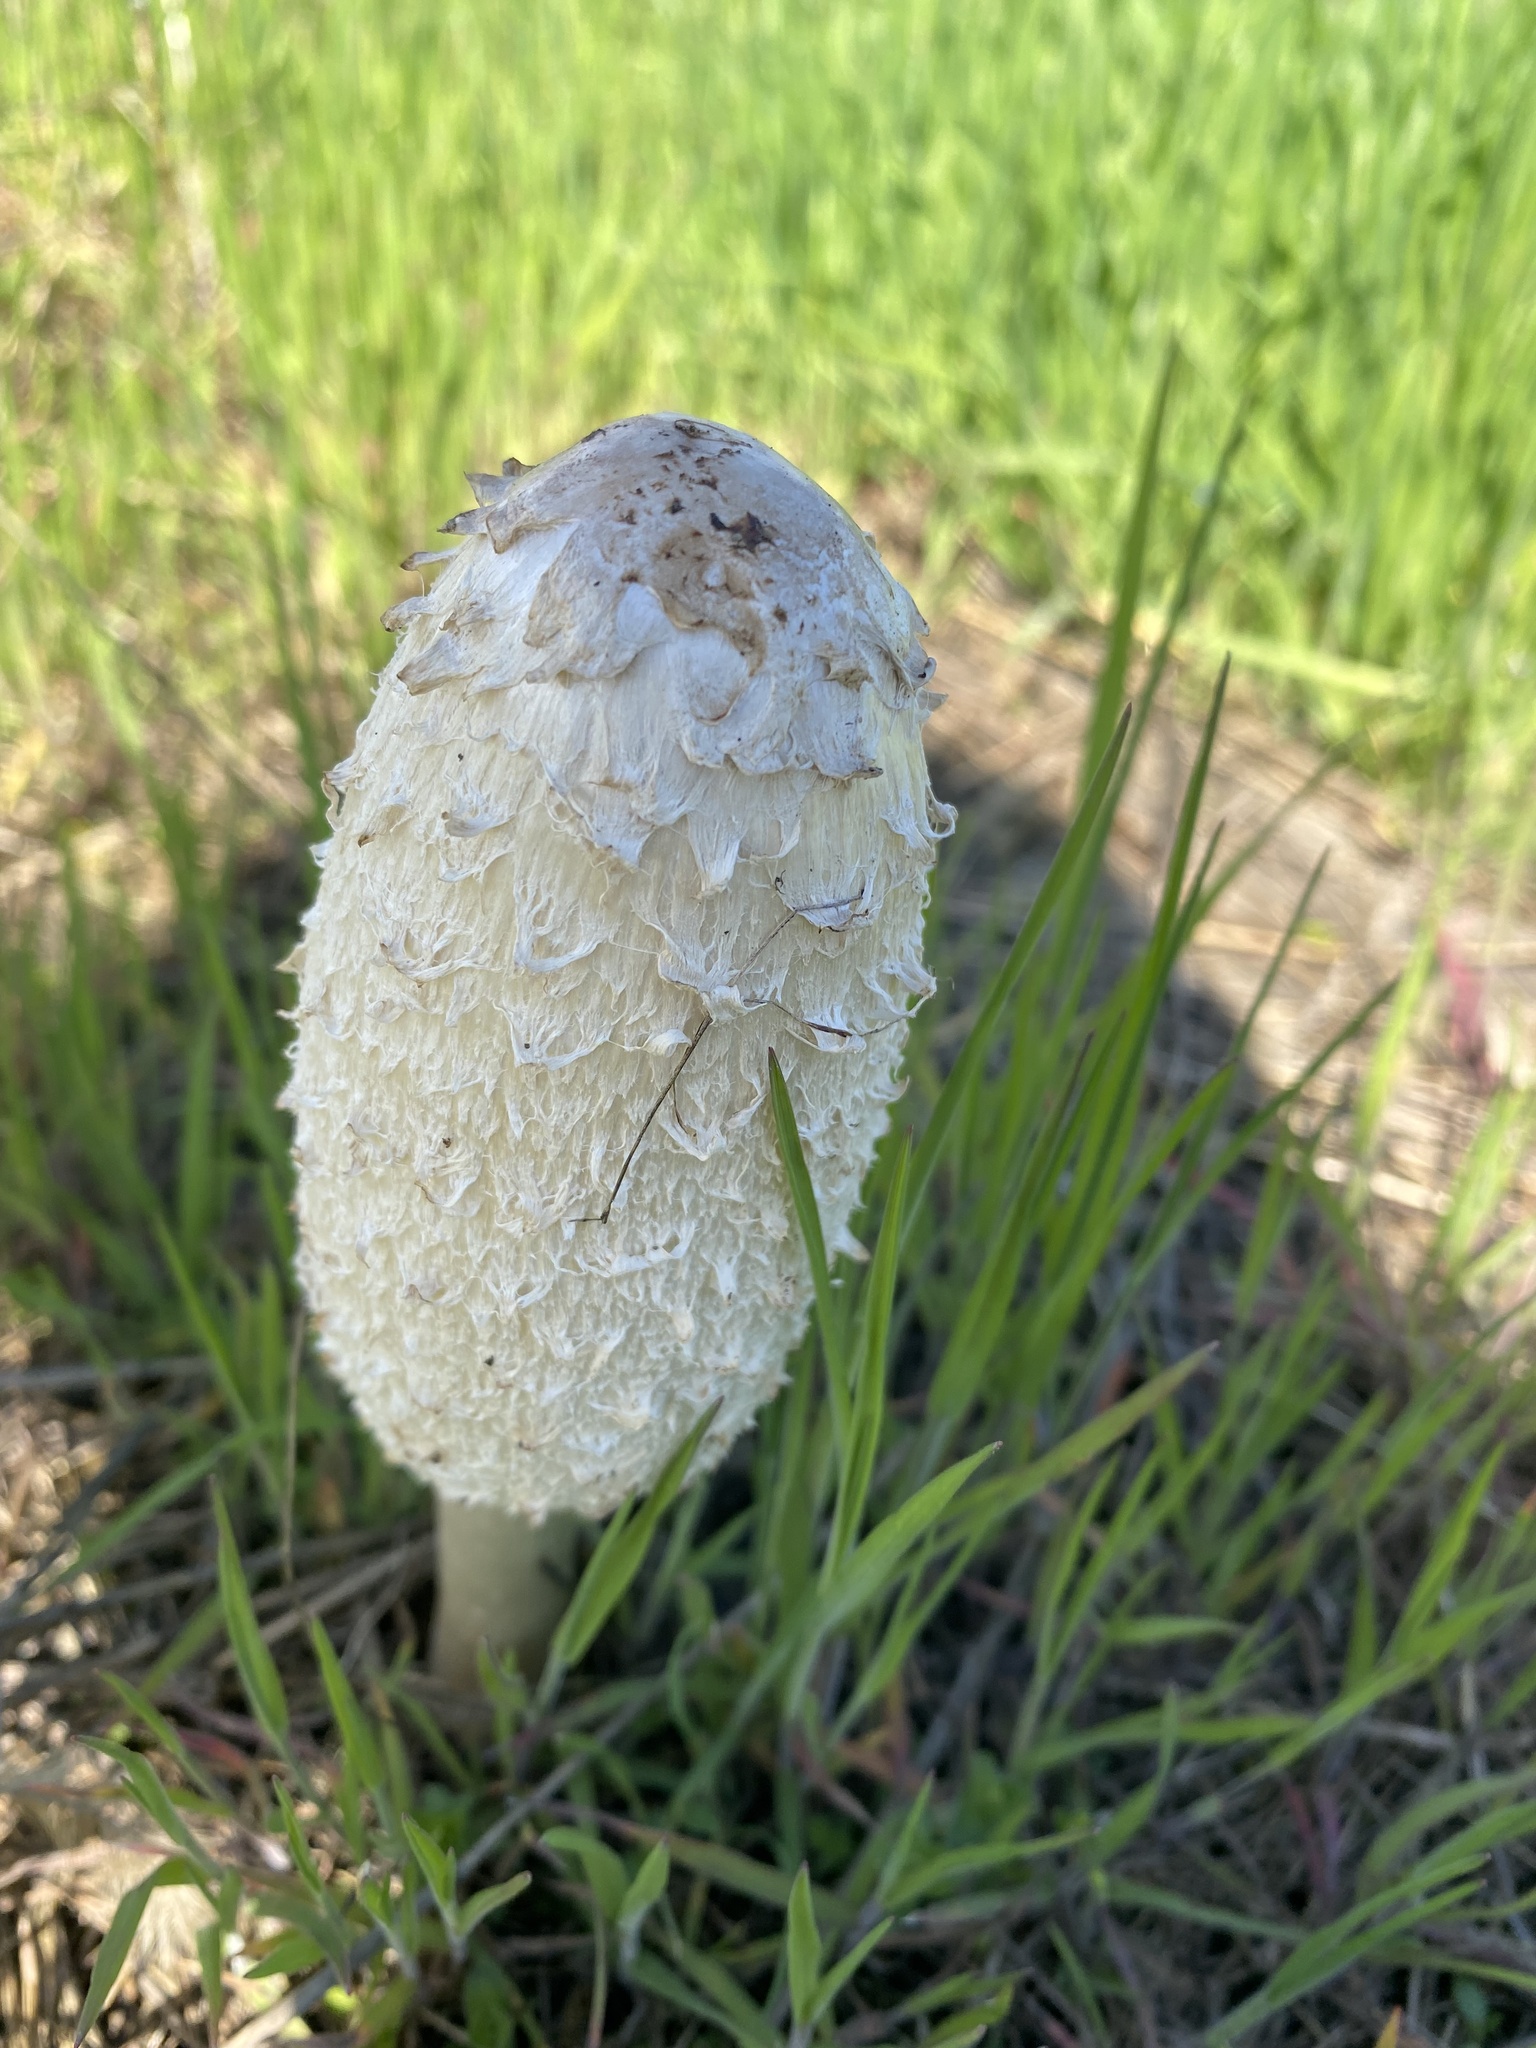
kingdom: Fungi
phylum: Basidiomycota
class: Agaricomycetes
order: Agaricales
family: Agaricaceae
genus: Coprinus
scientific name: Coprinus comatus
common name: Lawyer's wig
